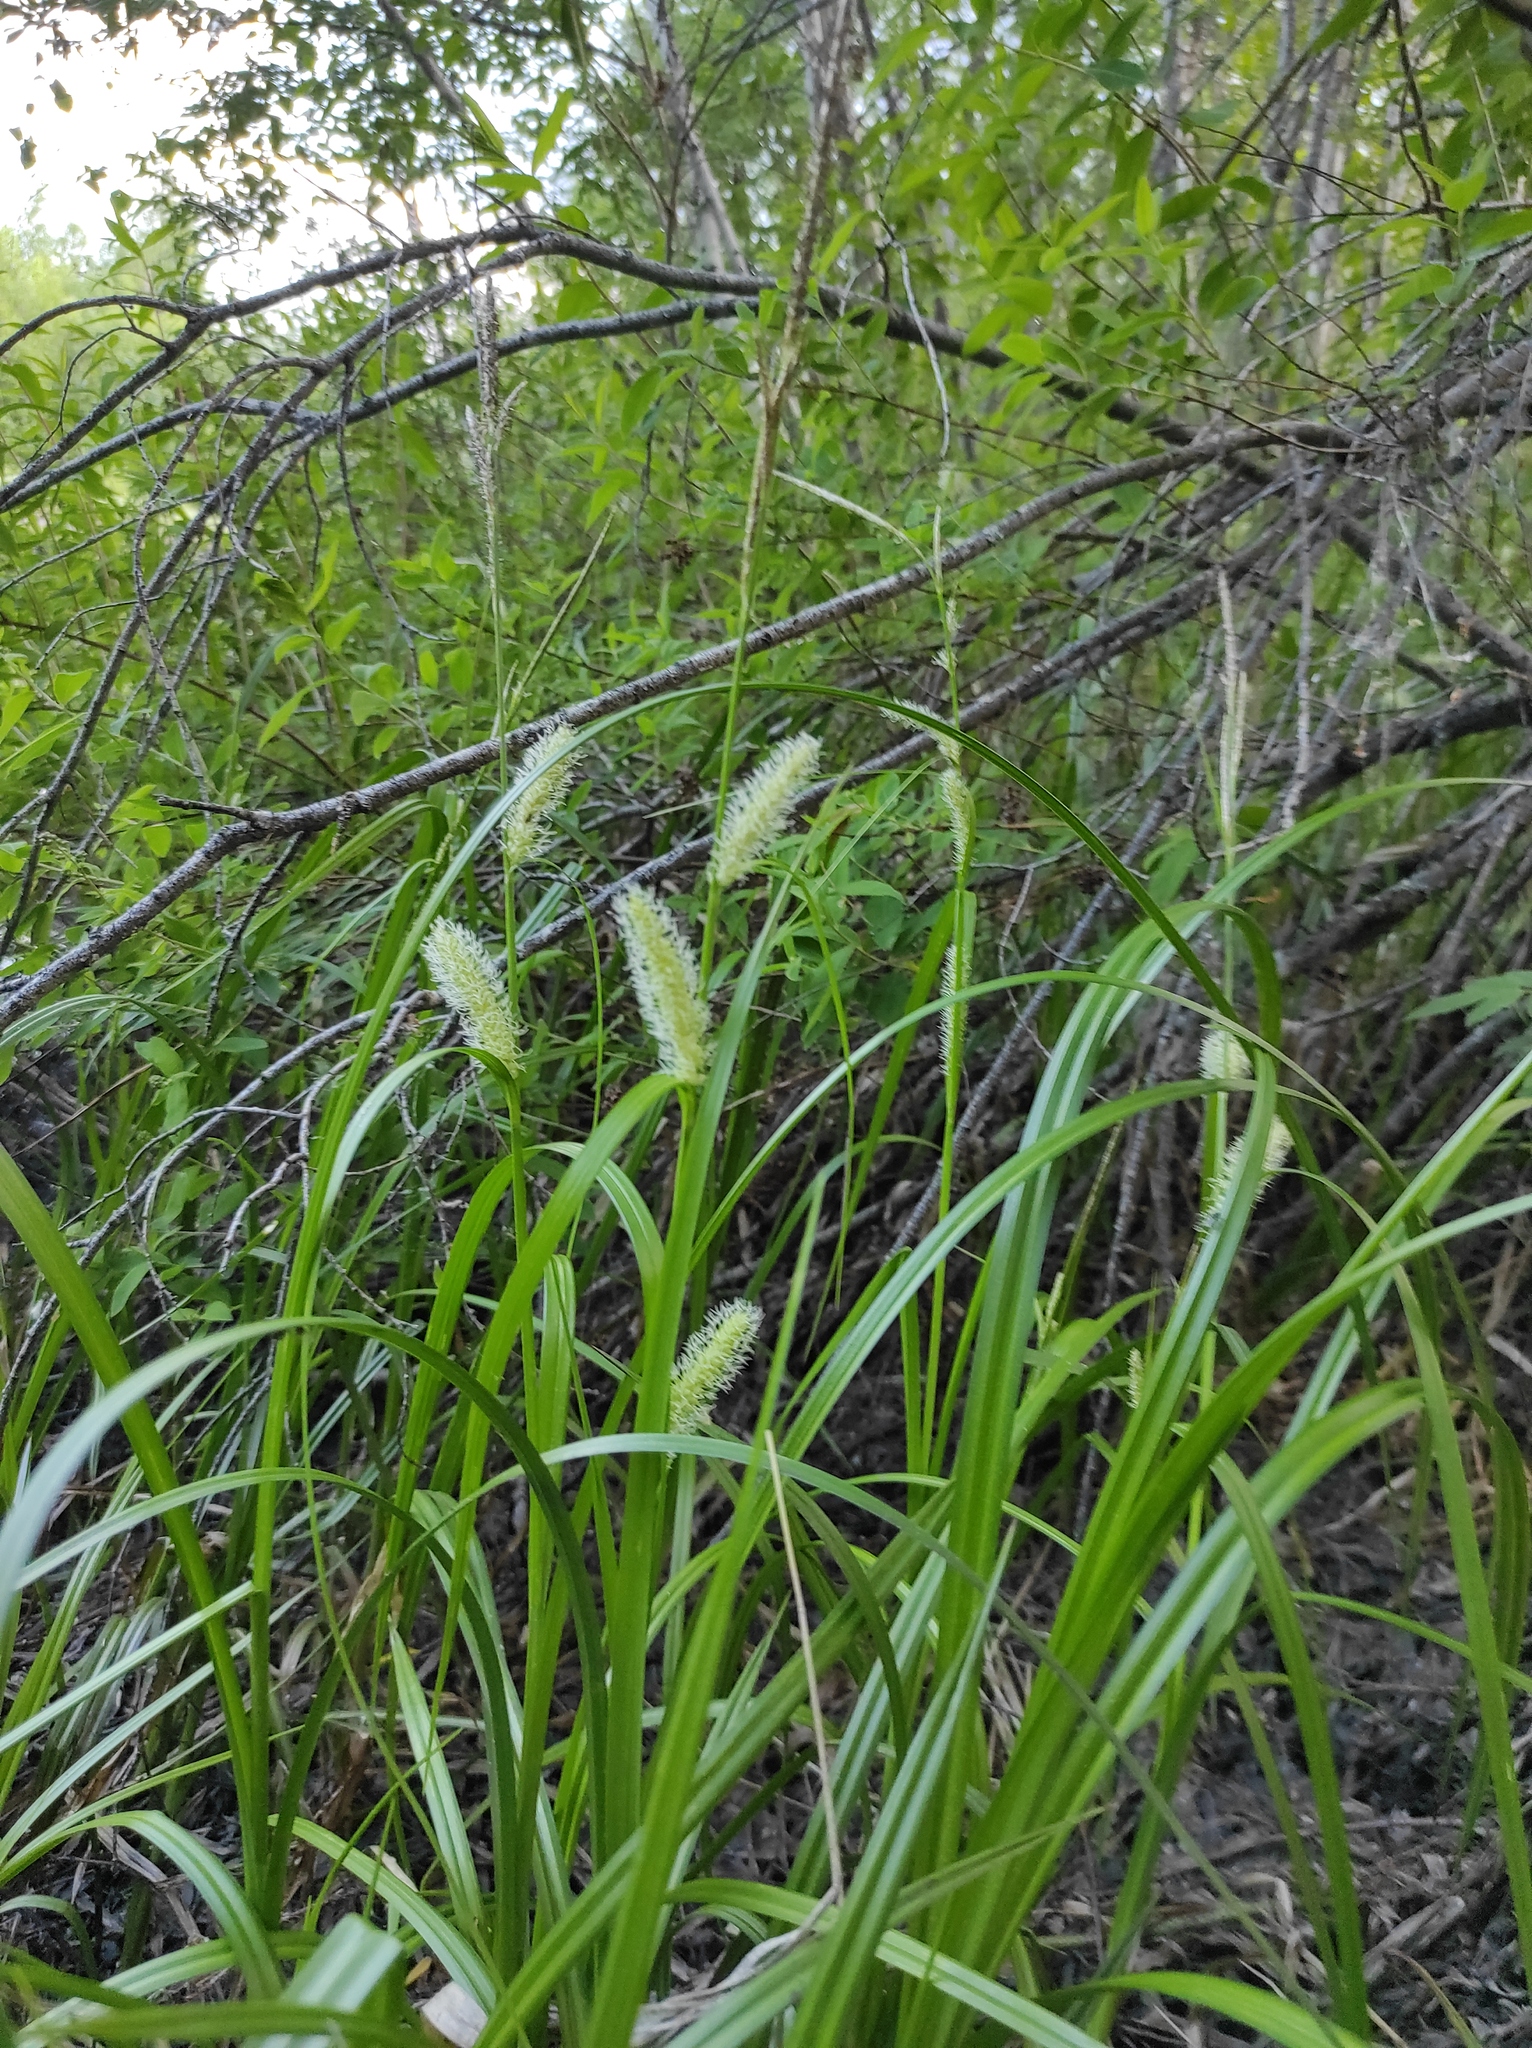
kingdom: Plantae
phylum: Tracheophyta
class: Liliopsida
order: Poales
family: Cyperaceae
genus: Carex
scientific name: Carex utriculata
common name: Beaked sedge
